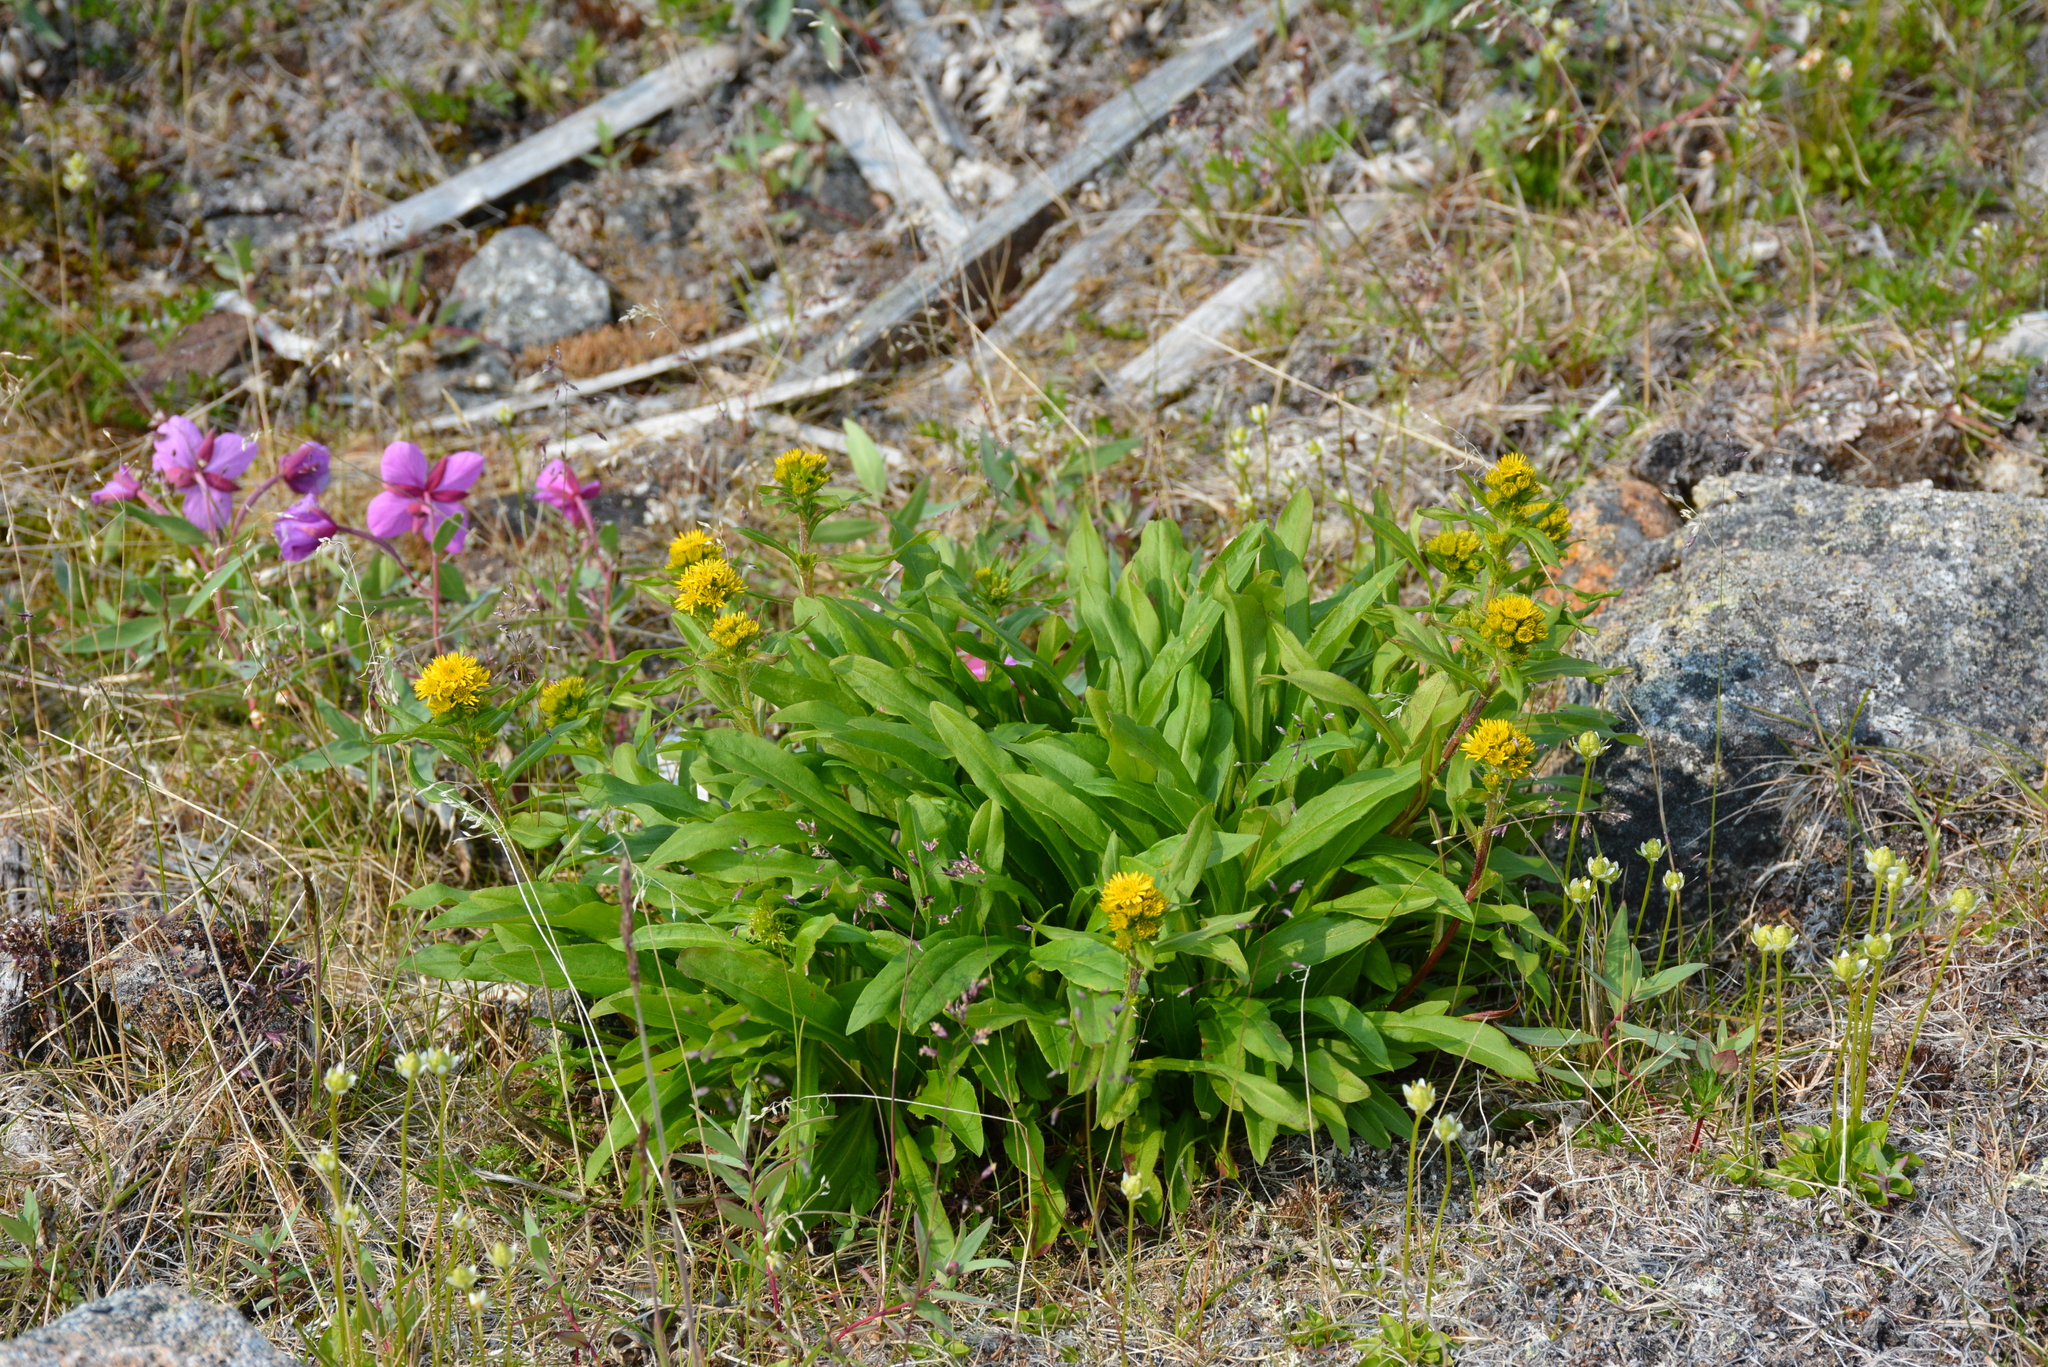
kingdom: Plantae
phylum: Tracheophyta
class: Magnoliopsida
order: Asterales
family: Asteraceae
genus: Solidago
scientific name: Solidago compacta
